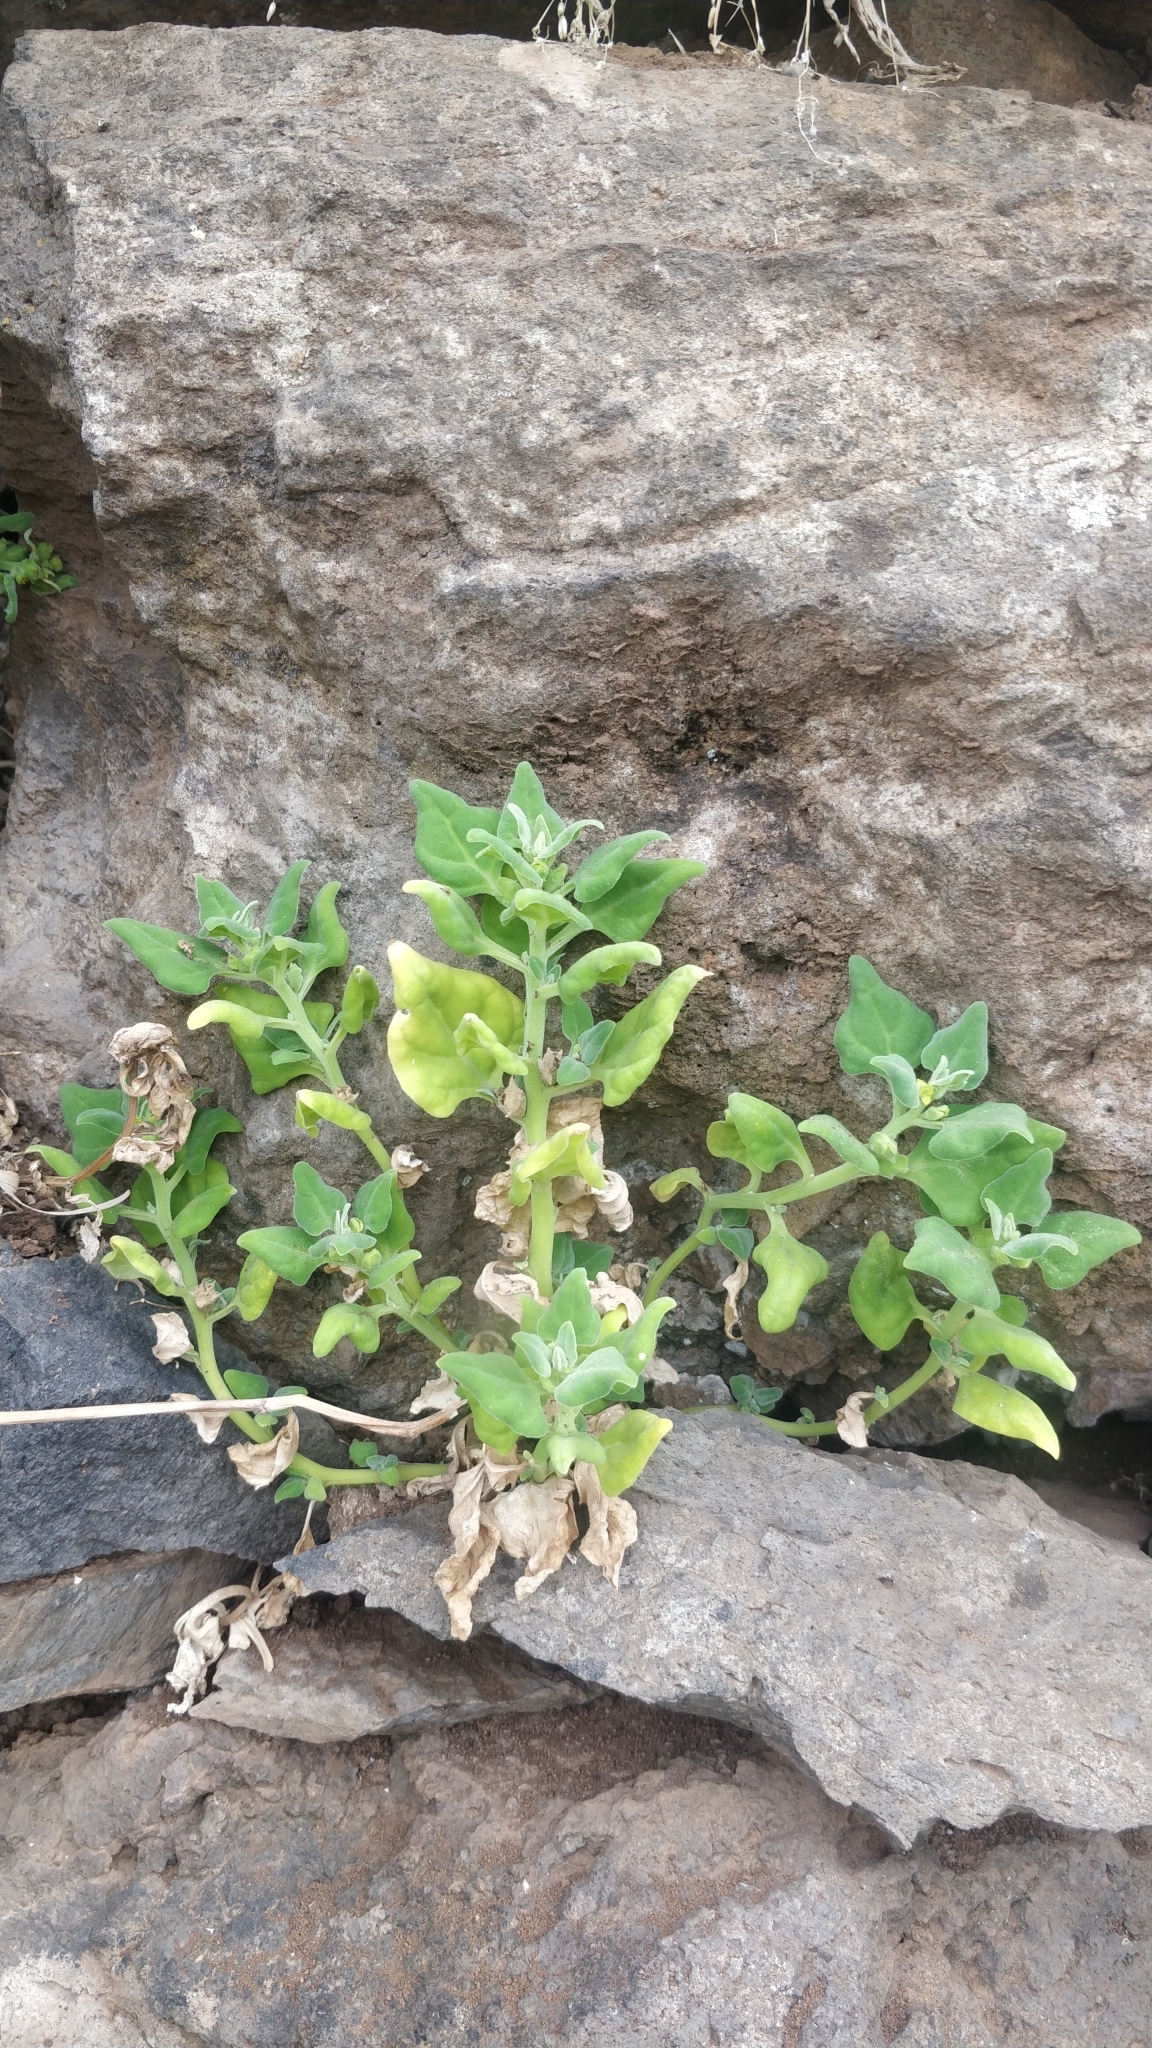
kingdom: Plantae
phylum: Tracheophyta
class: Magnoliopsida
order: Caryophyllales
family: Aizoaceae
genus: Tetragonia
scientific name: Tetragonia tetragonoides
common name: New zealand-spinach
